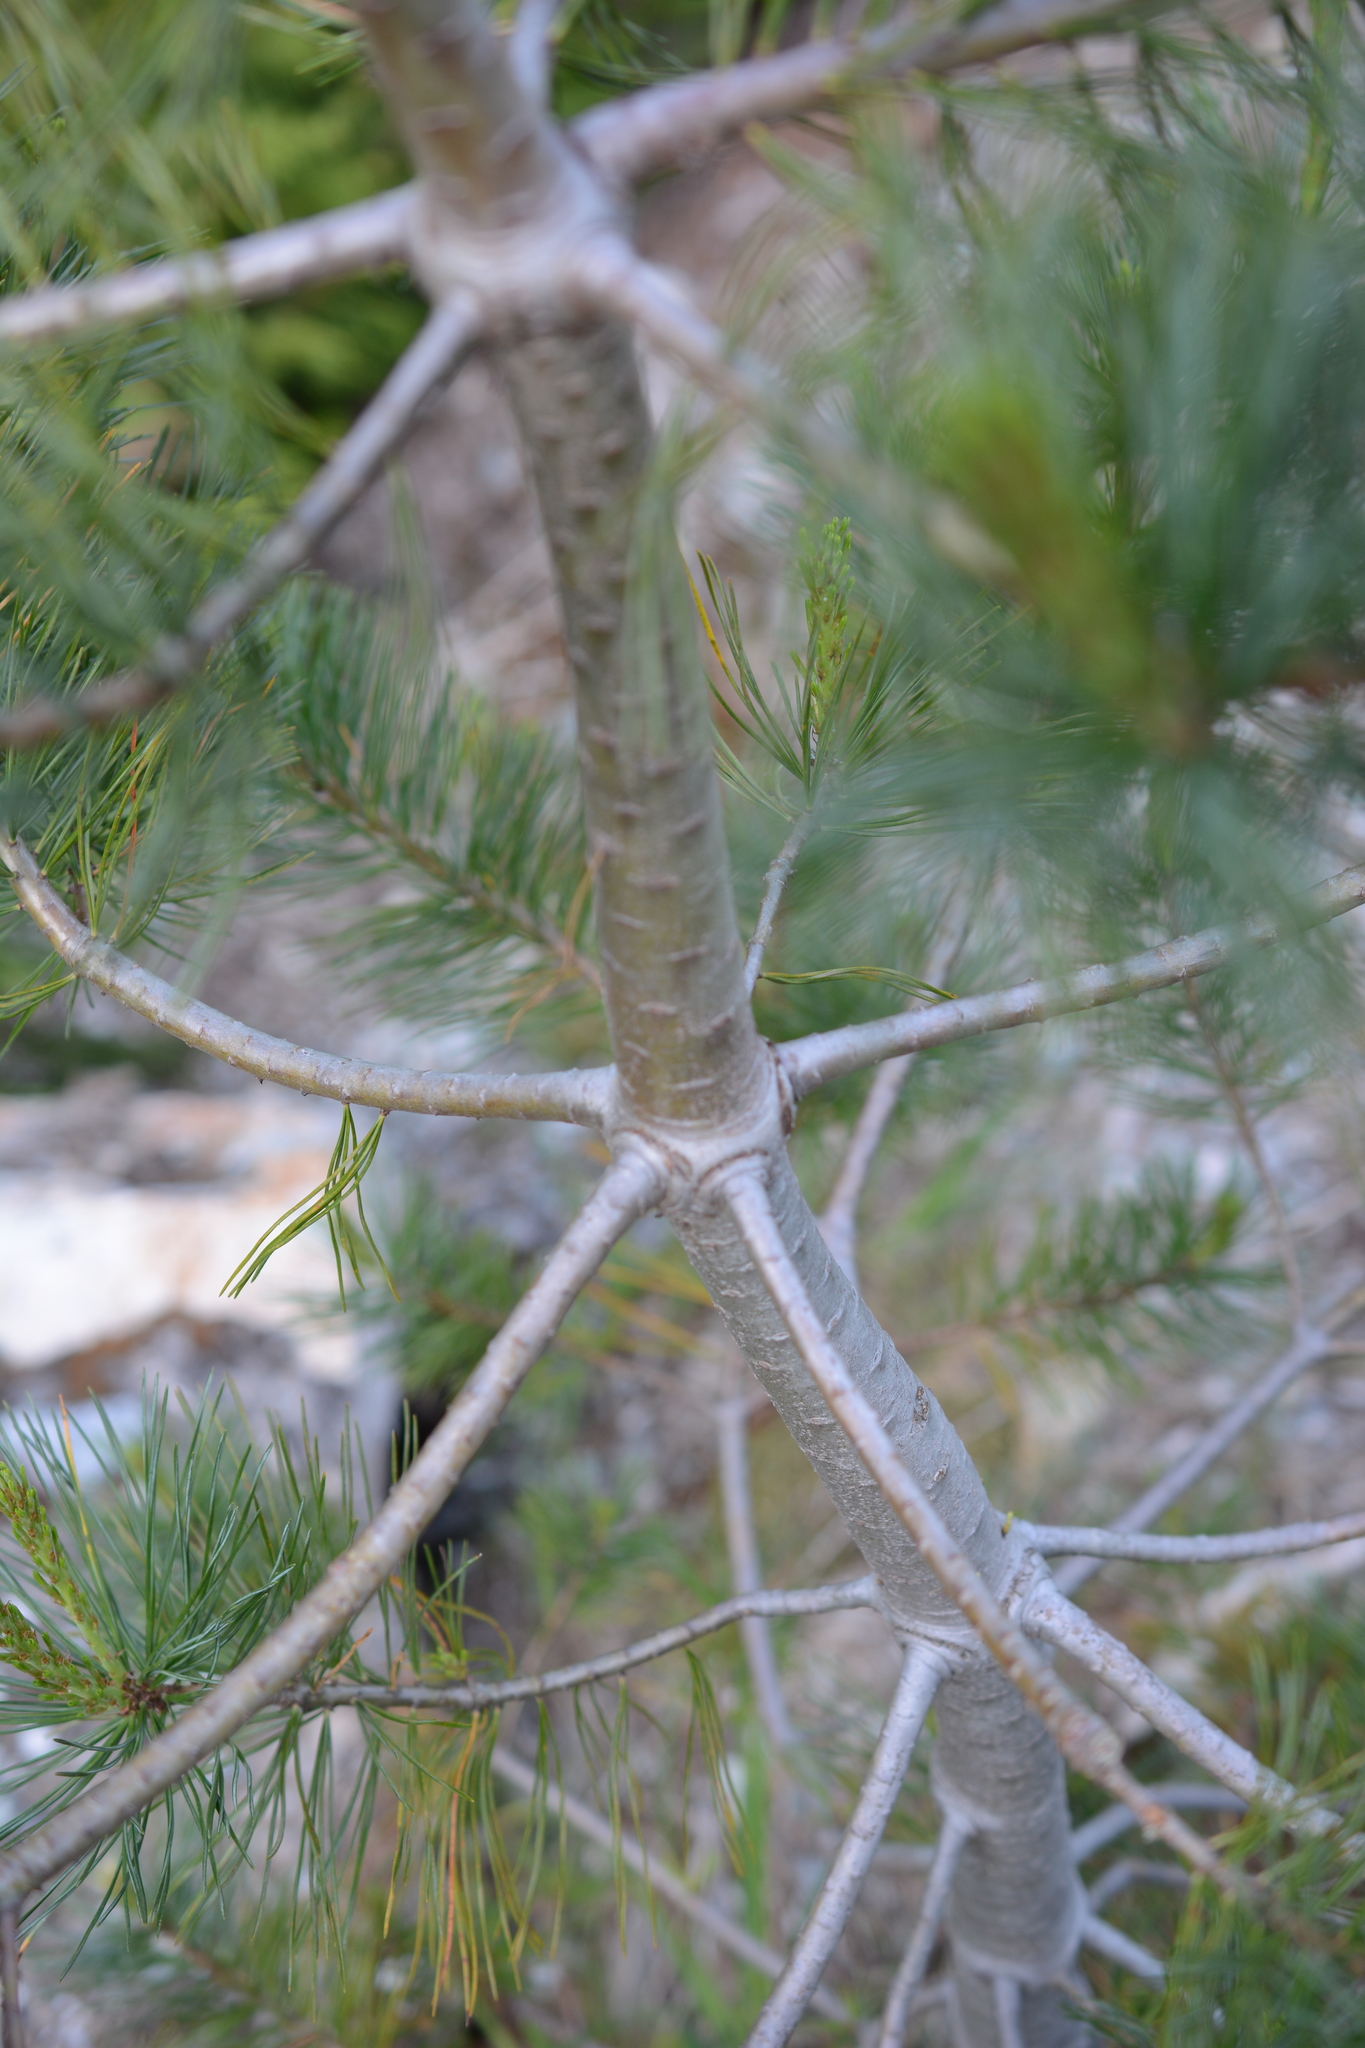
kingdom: Plantae
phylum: Tracheophyta
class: Pinopsida
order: Pinales
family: Pinaceae
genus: Pinus
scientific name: Pinus monticola
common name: Western white pine
